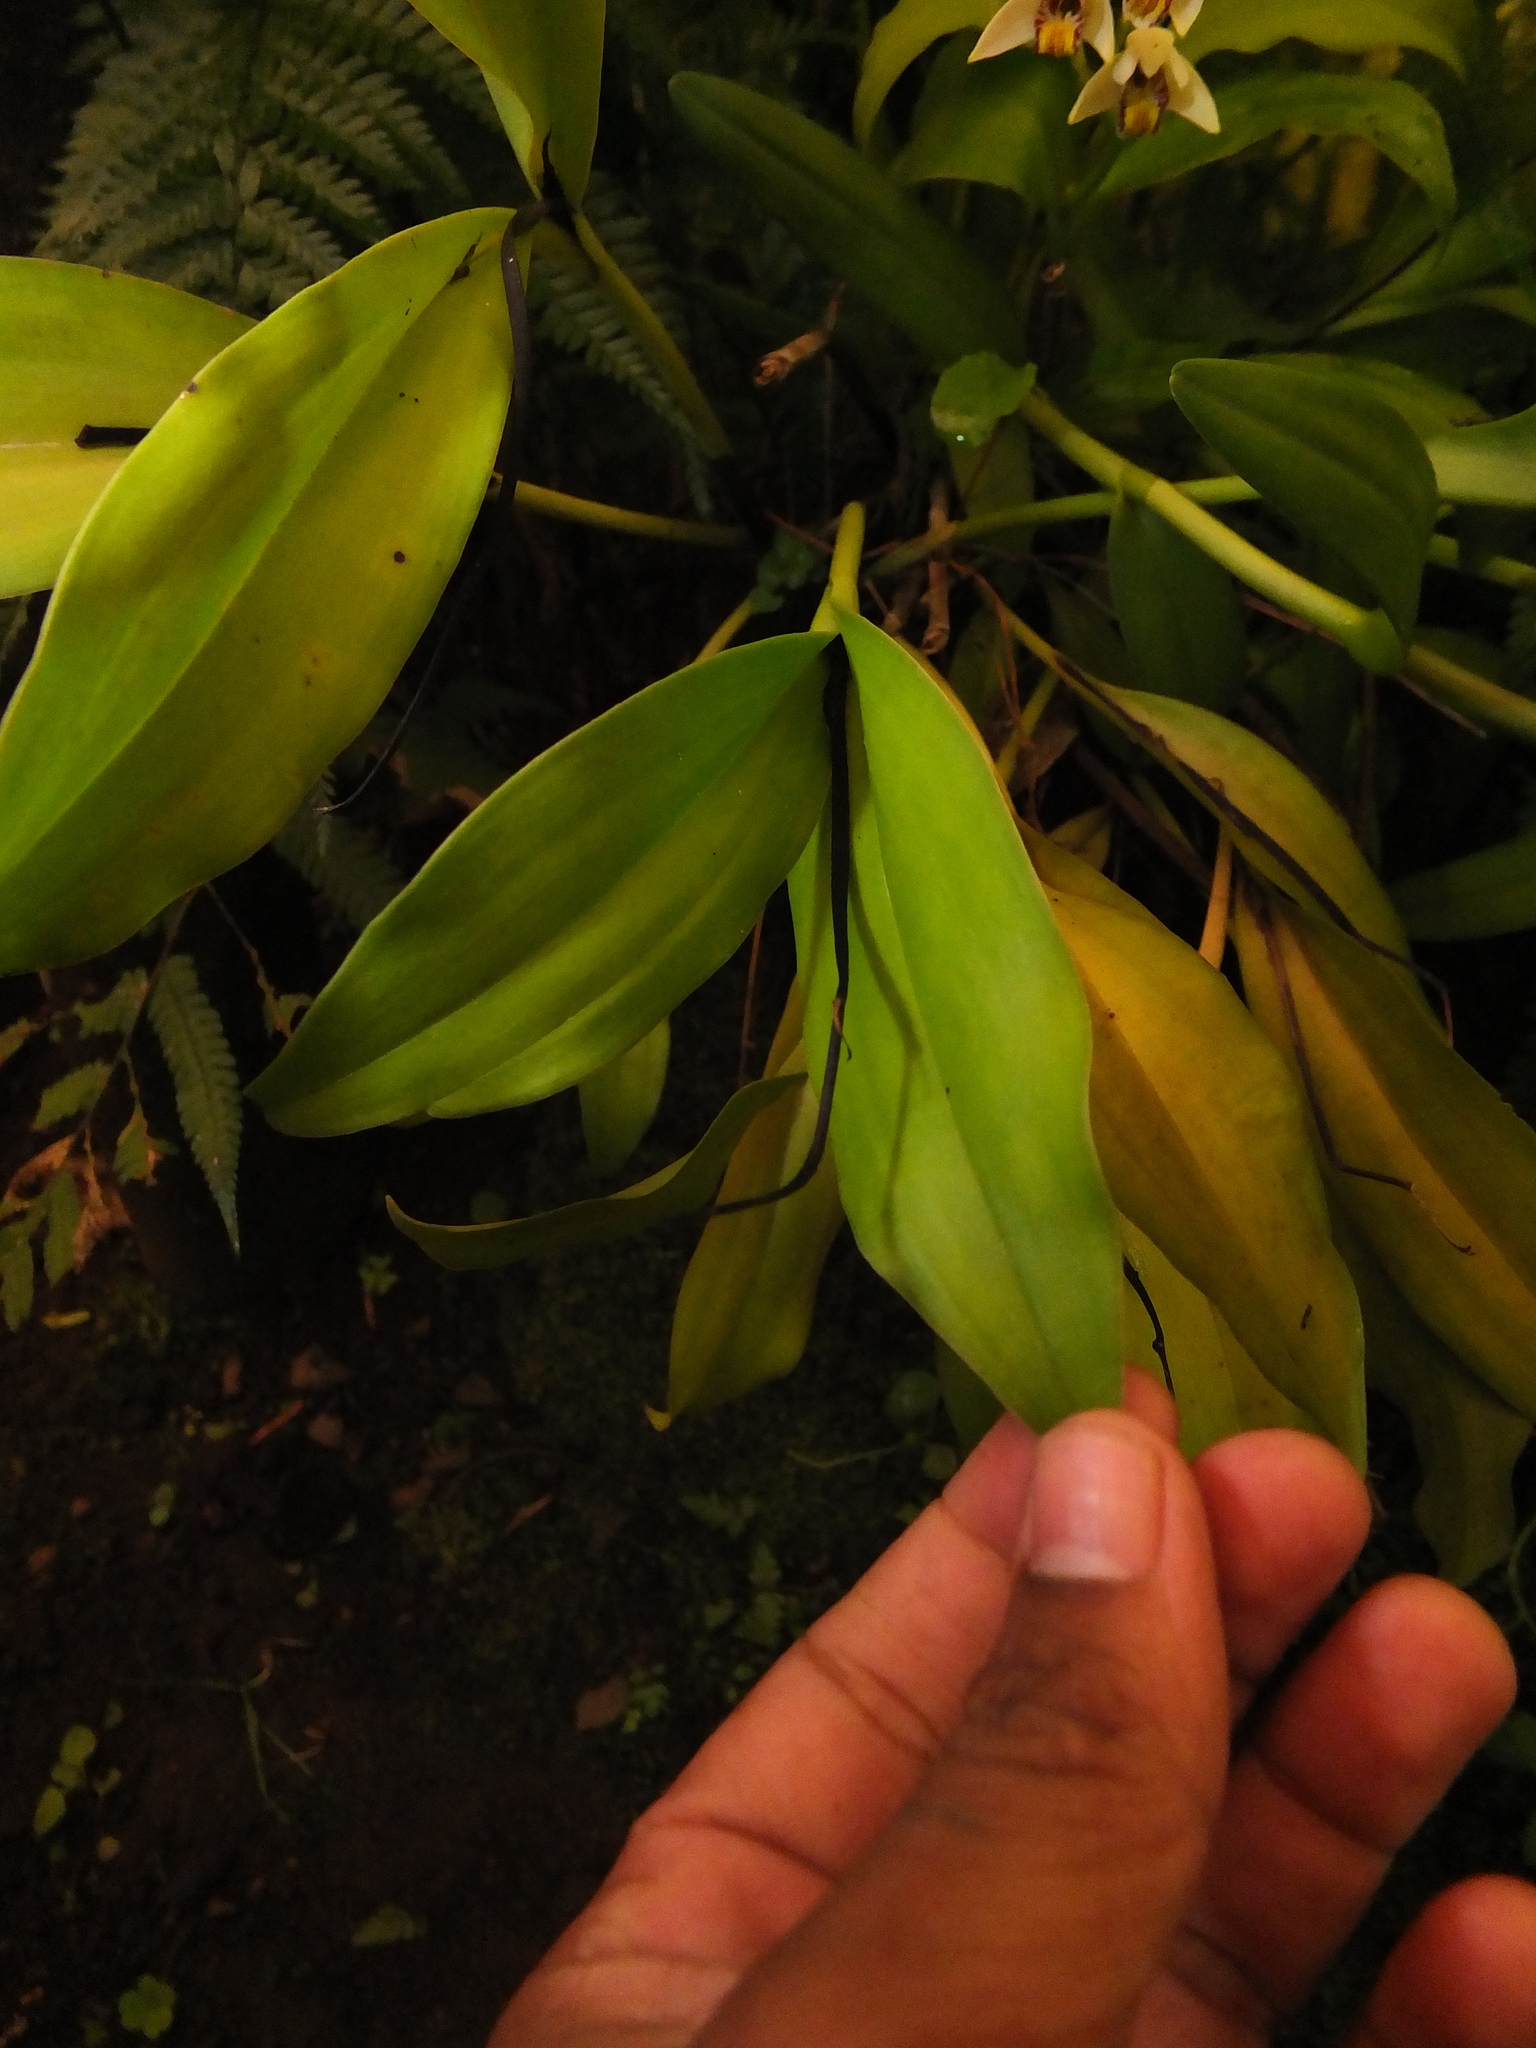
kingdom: Plantae
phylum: Tracheophyta
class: Liliopsida
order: Asparagales
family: Orchidaceae
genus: Eria
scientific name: Eria coronaria
